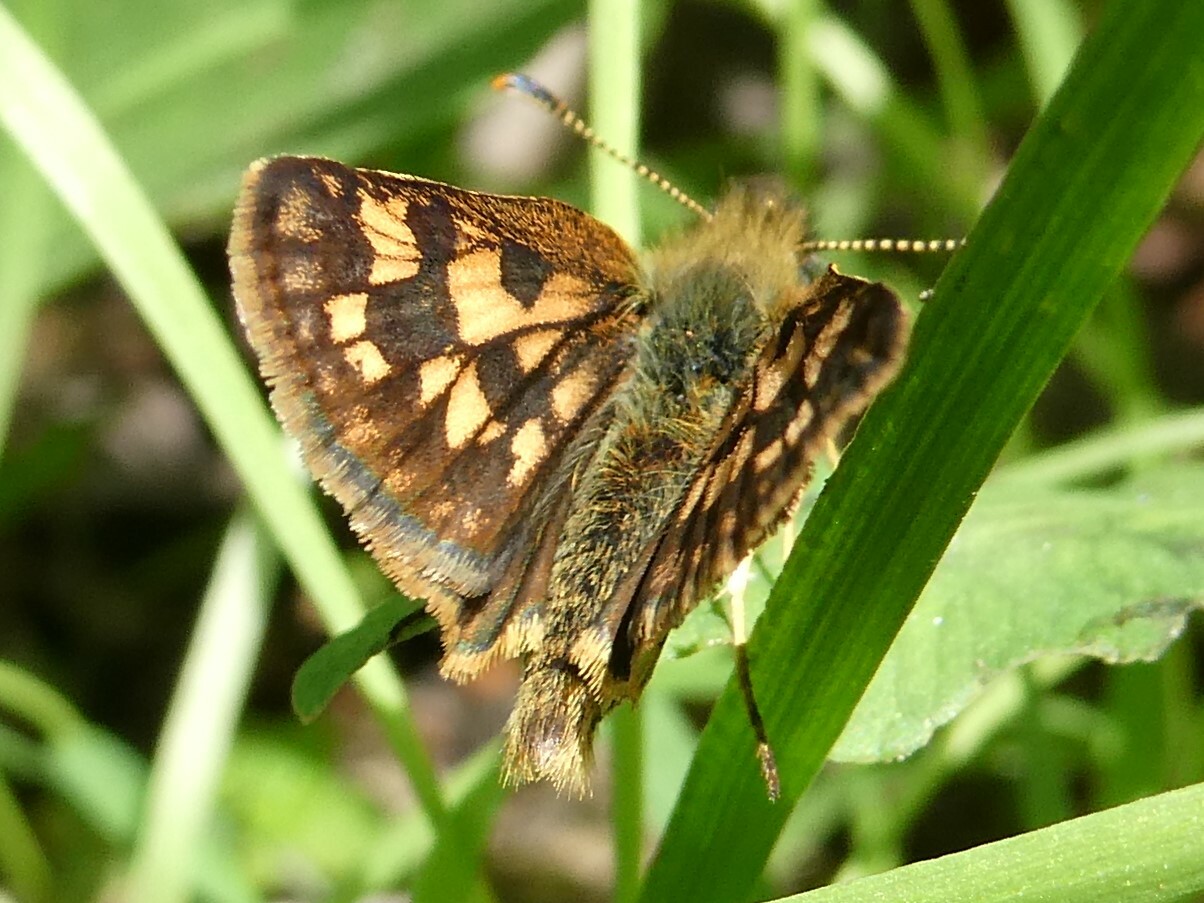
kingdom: Animalia
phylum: Arthropoda
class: Insecta
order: Lepidoptera
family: Hesperiidae
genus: Carterocephalus
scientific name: Carterocephalus mandan
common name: Arctic skipperling
